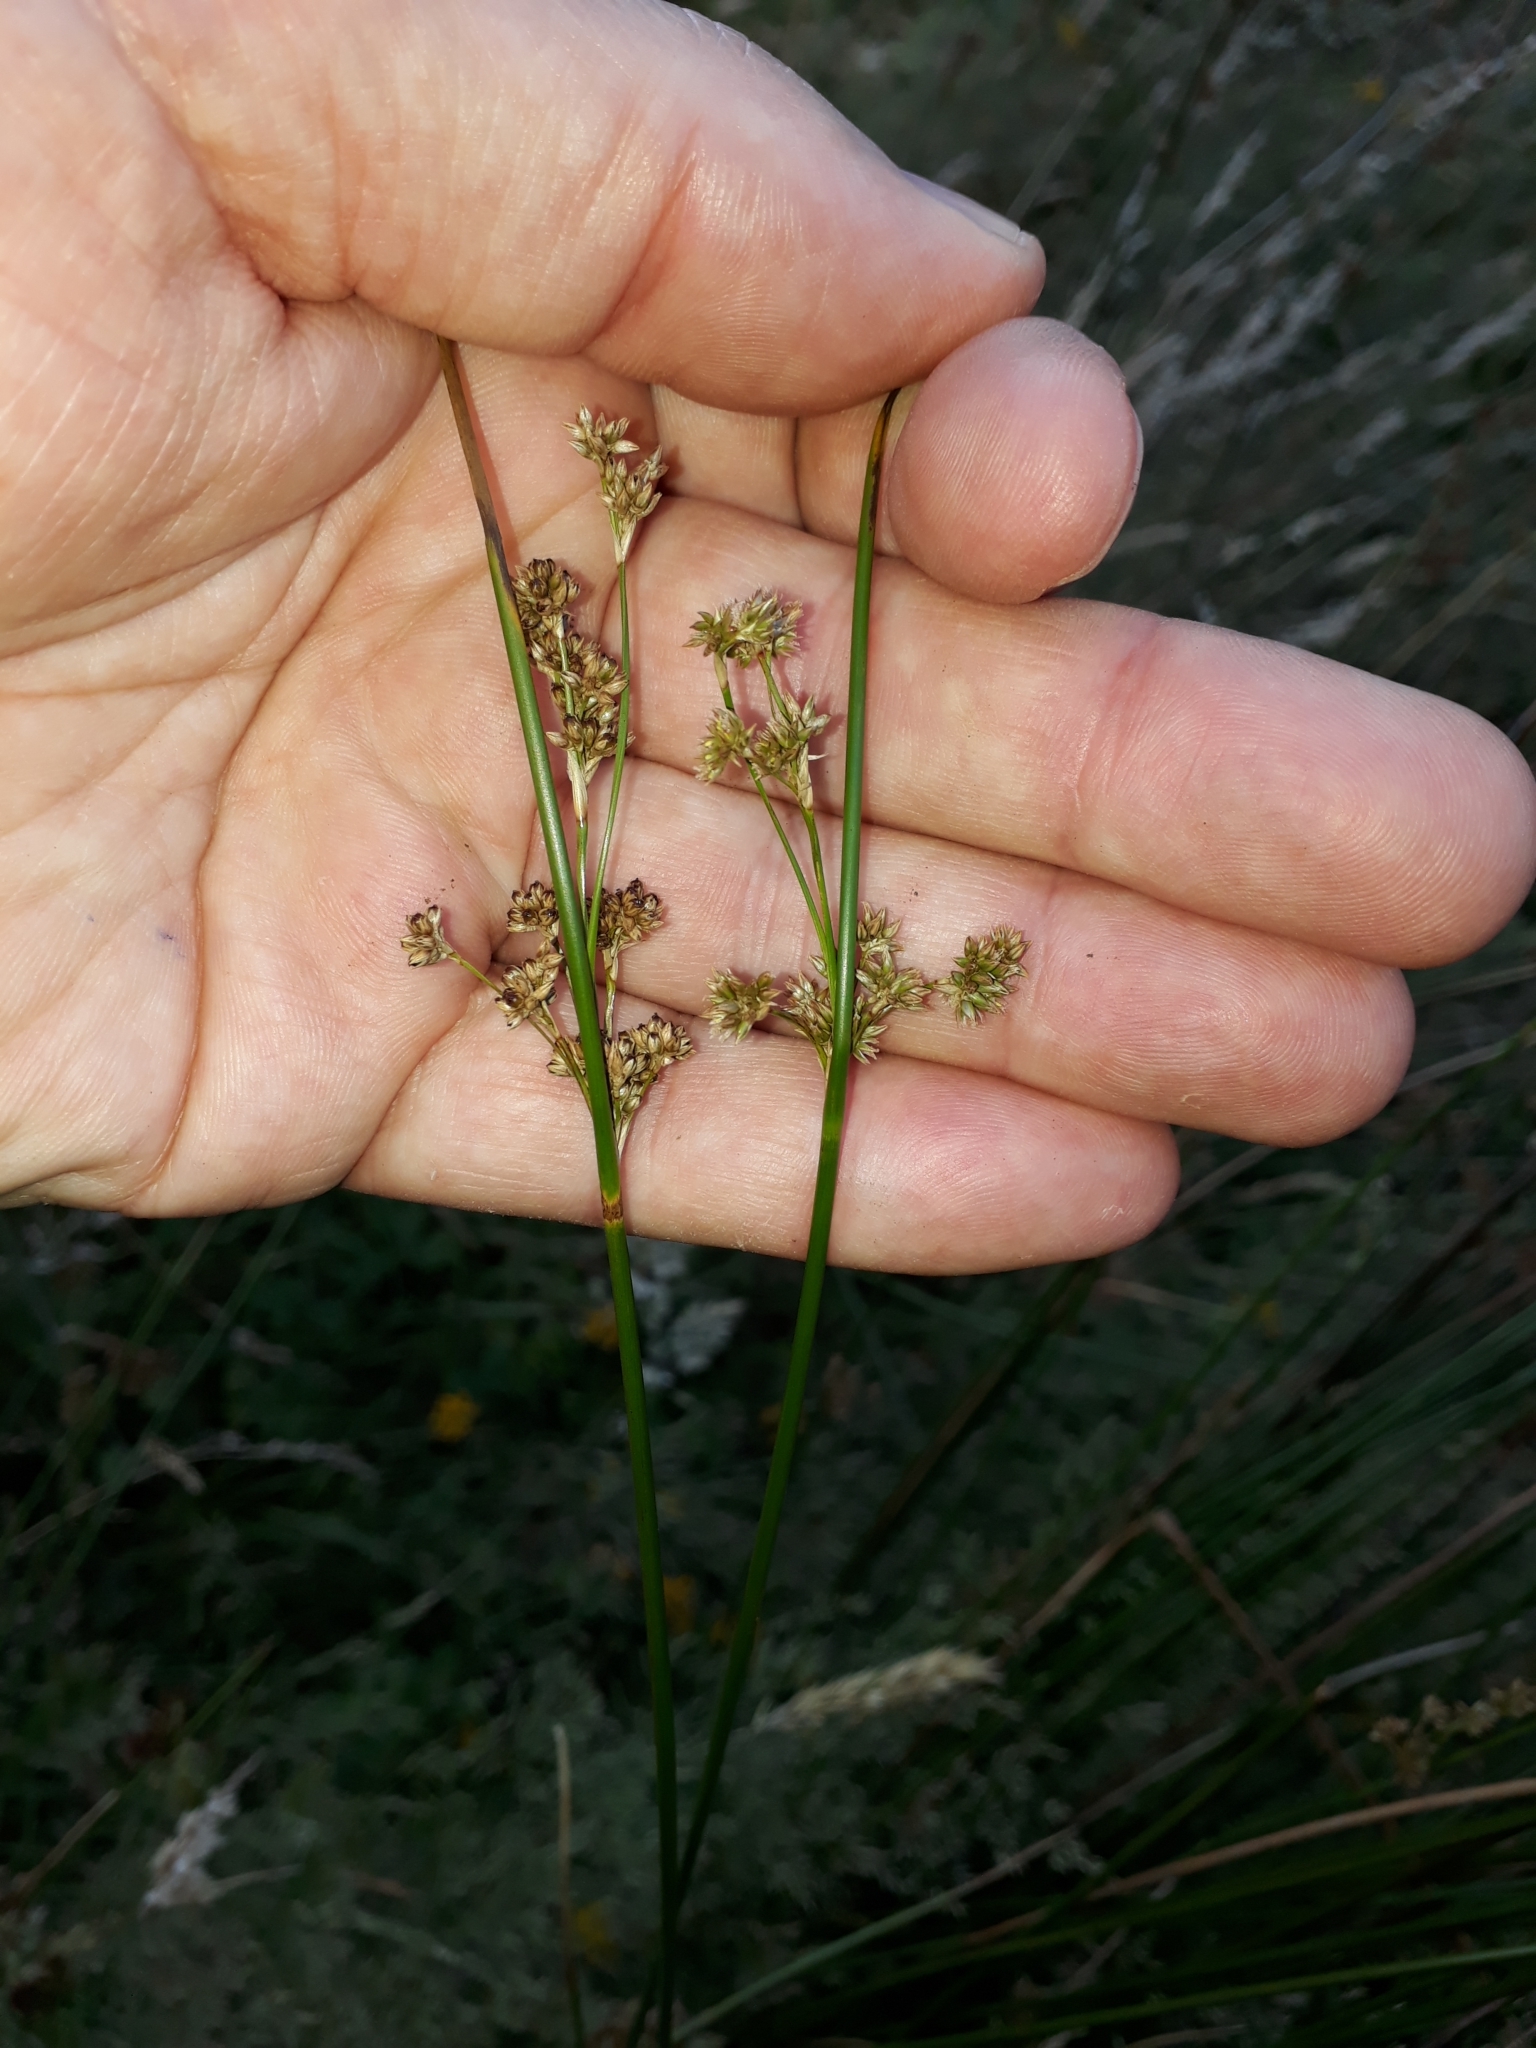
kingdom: Plantae
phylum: Tracheophyta
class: Liliopsida
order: Poales
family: Juncaceae
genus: Juncus
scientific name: Juncus edgariae
